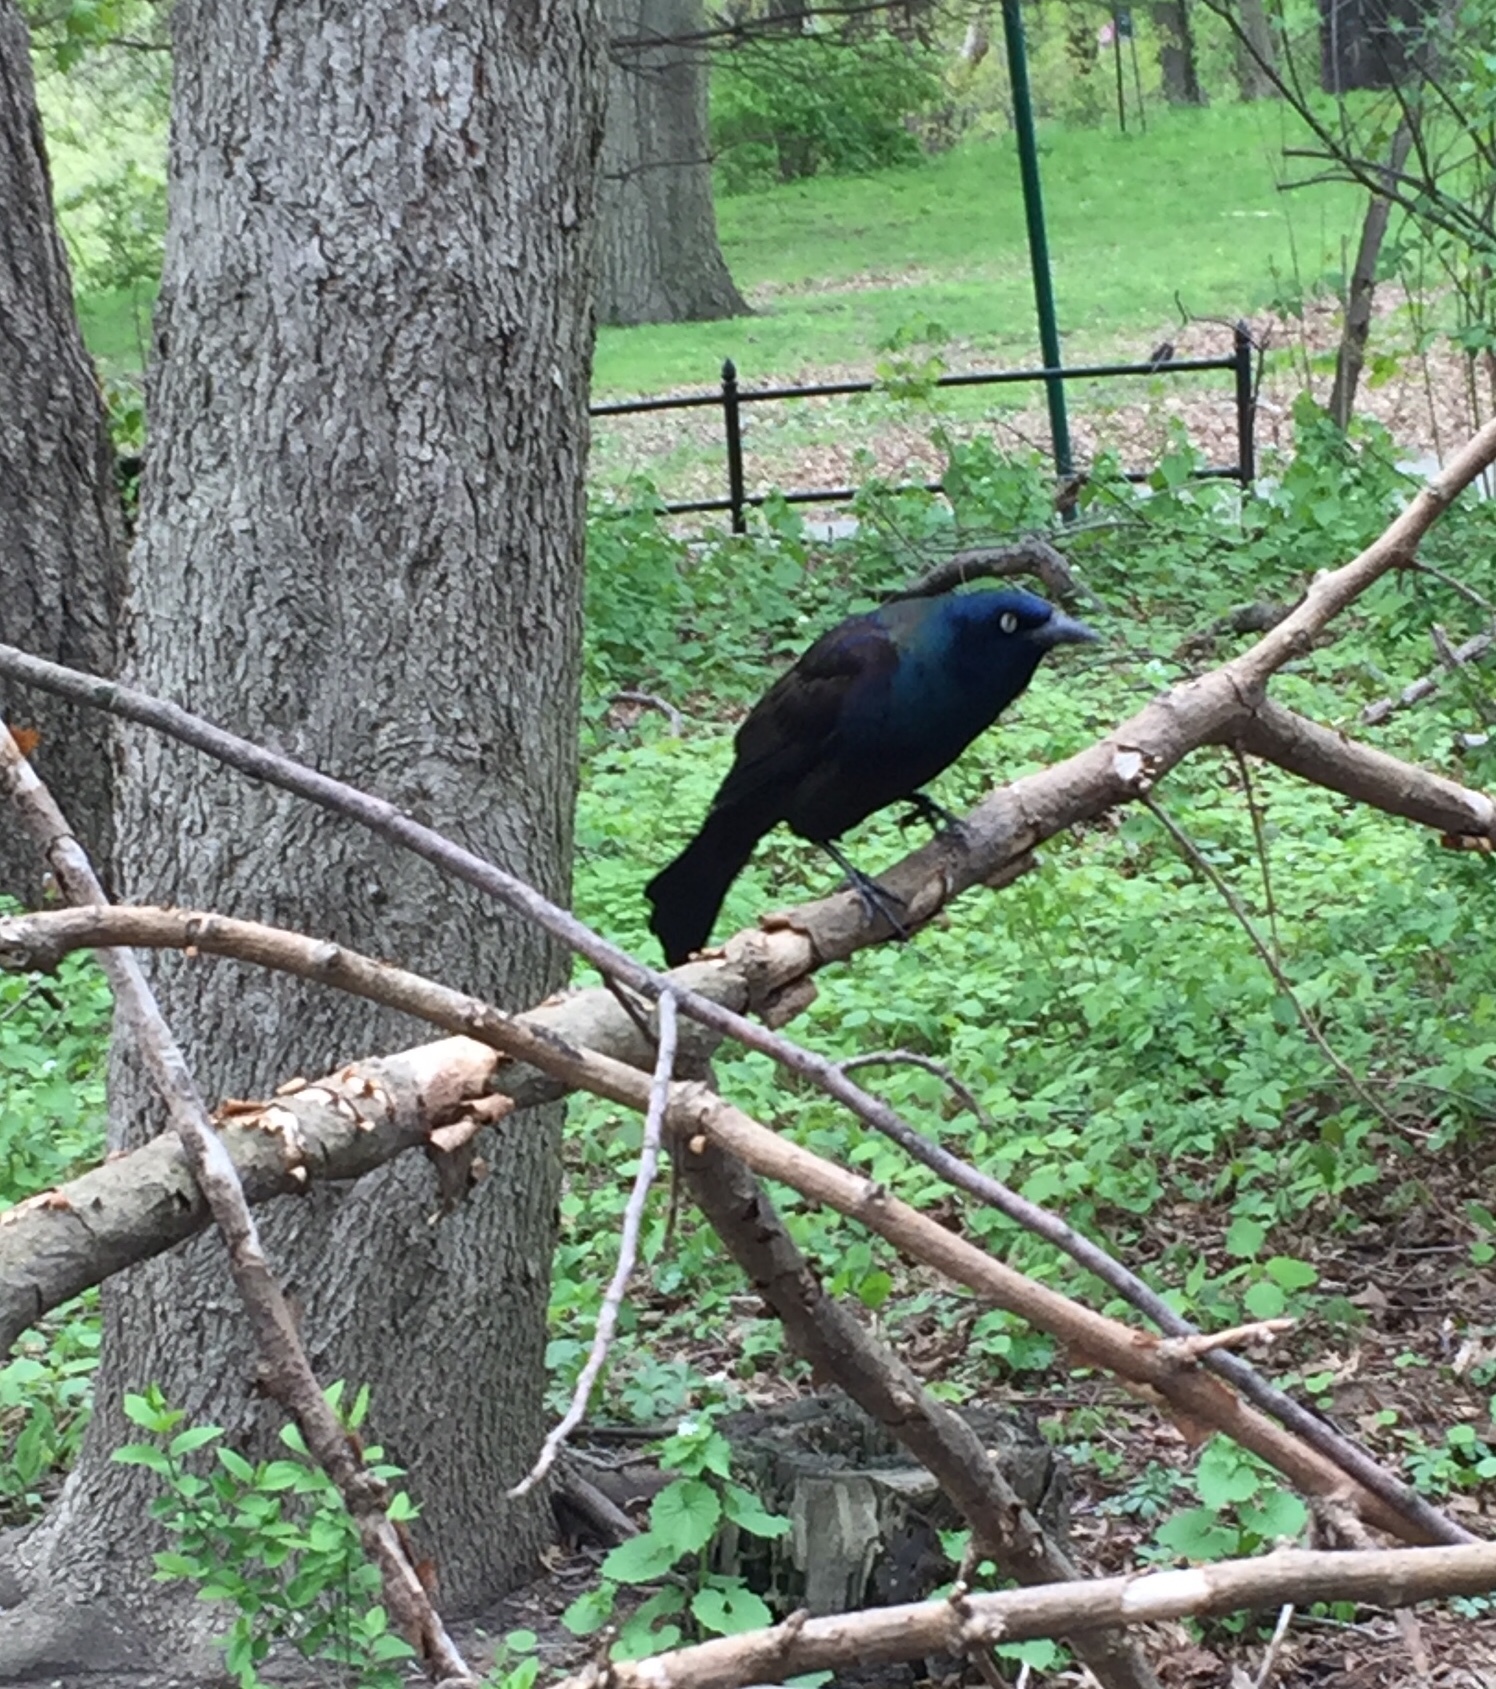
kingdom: Animalia
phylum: Chordata
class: Aves
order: Passeriformes
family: Icteridae
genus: Quiscalus
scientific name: Quiscalus quiscula
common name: Common grackle
